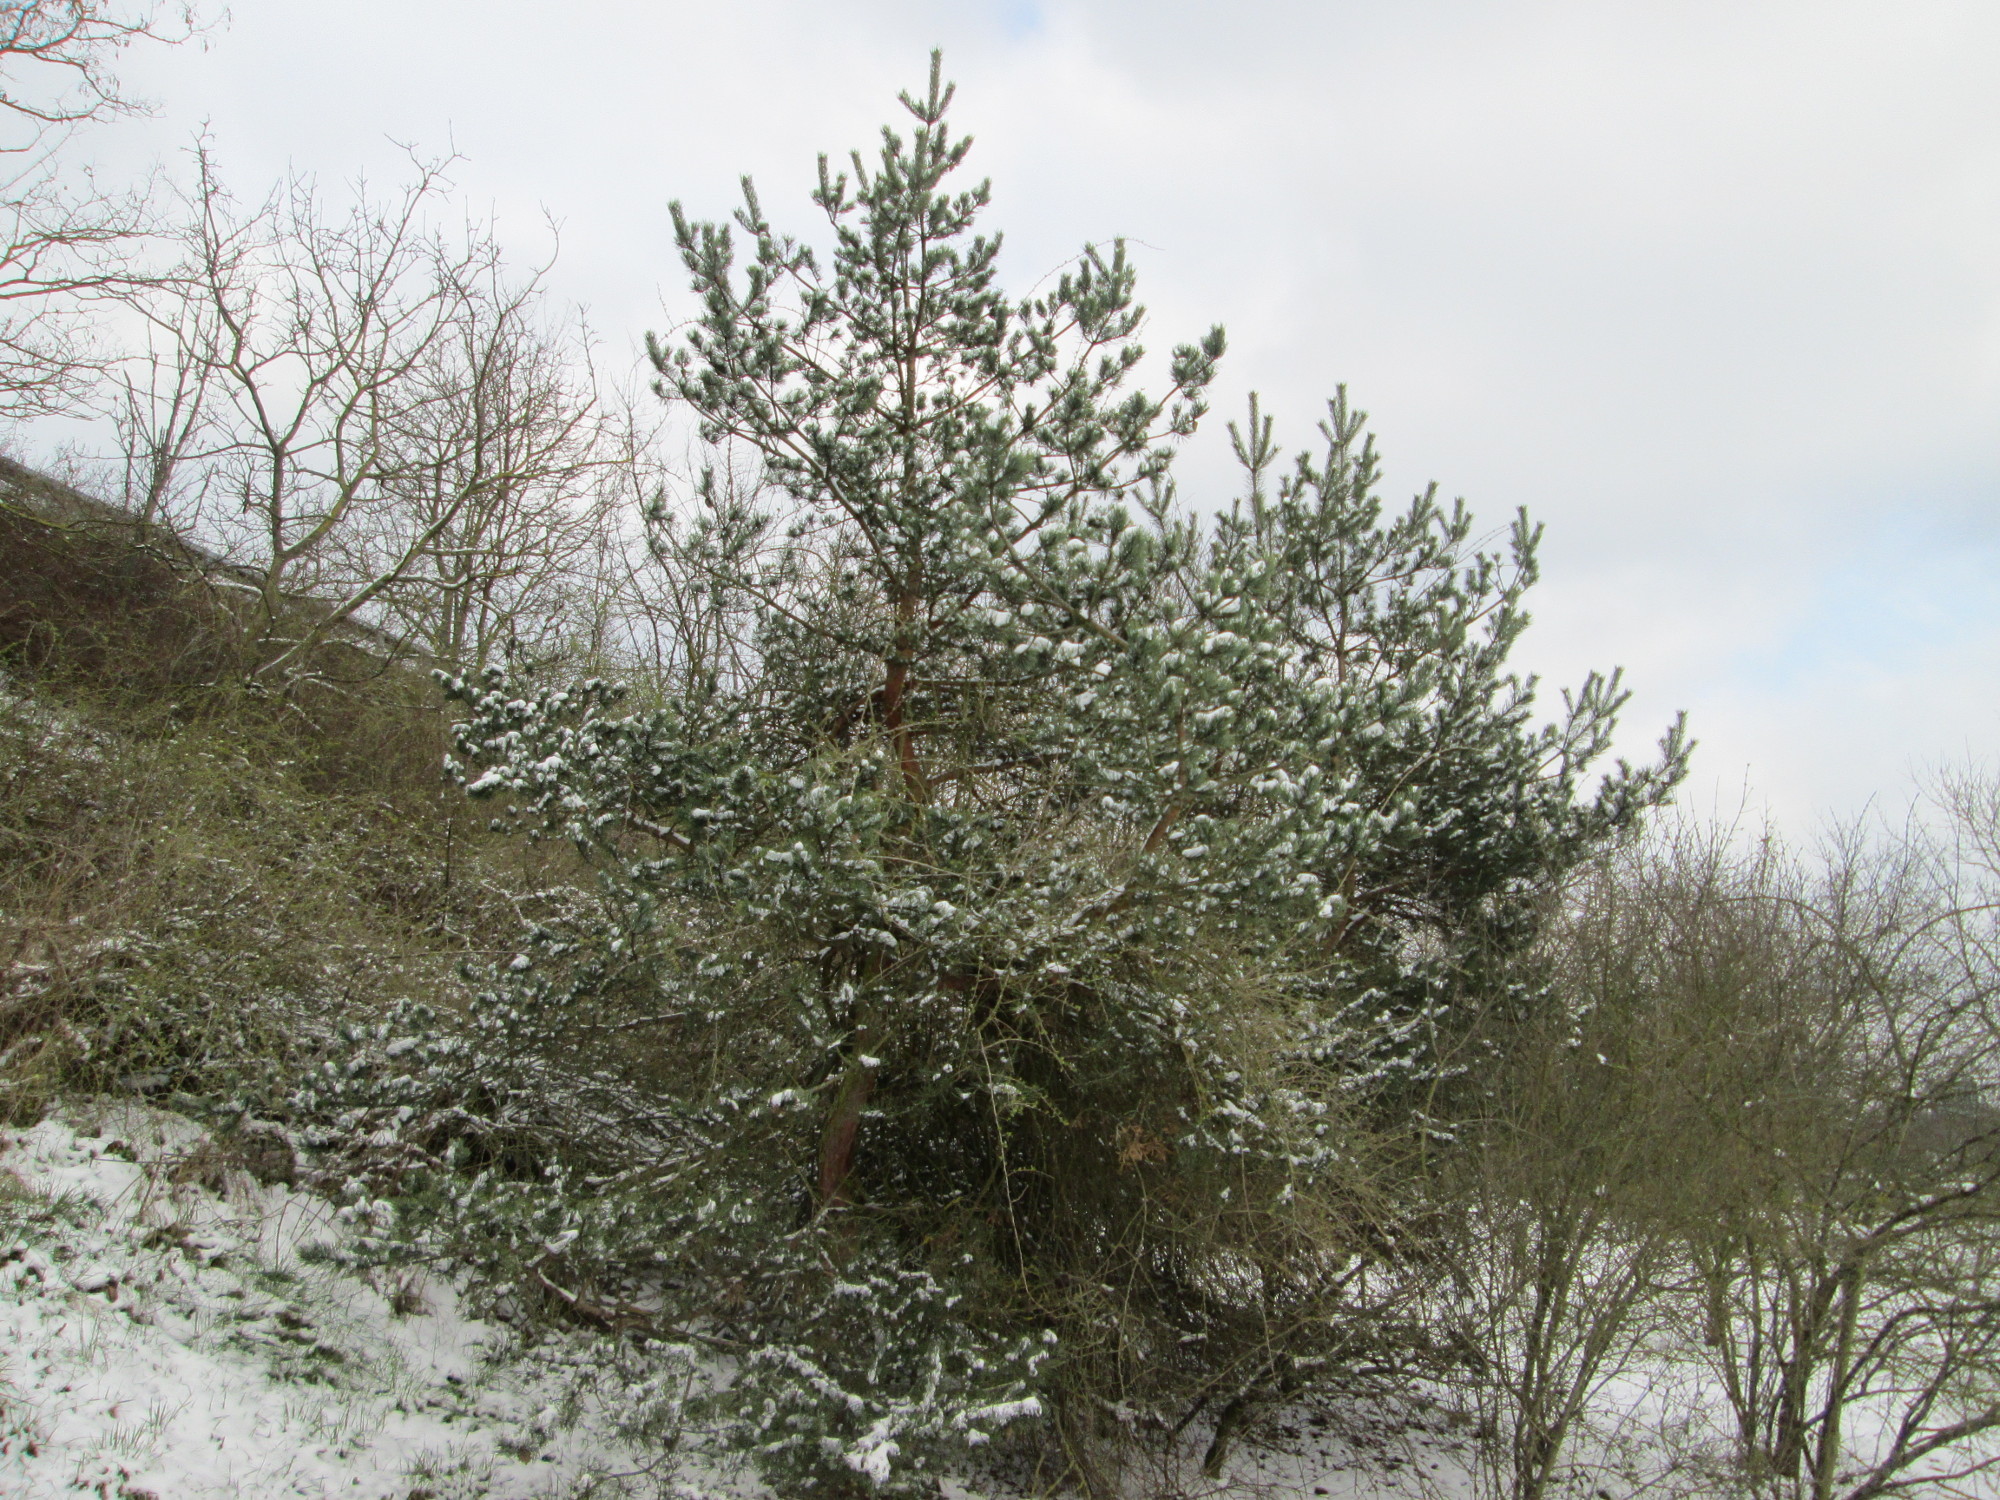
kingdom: Plantae
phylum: Tracheophyta
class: Pinopsida
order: Pinales
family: Pinaceae
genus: Pinus
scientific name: Pinus sylvestris
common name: Scots pine
